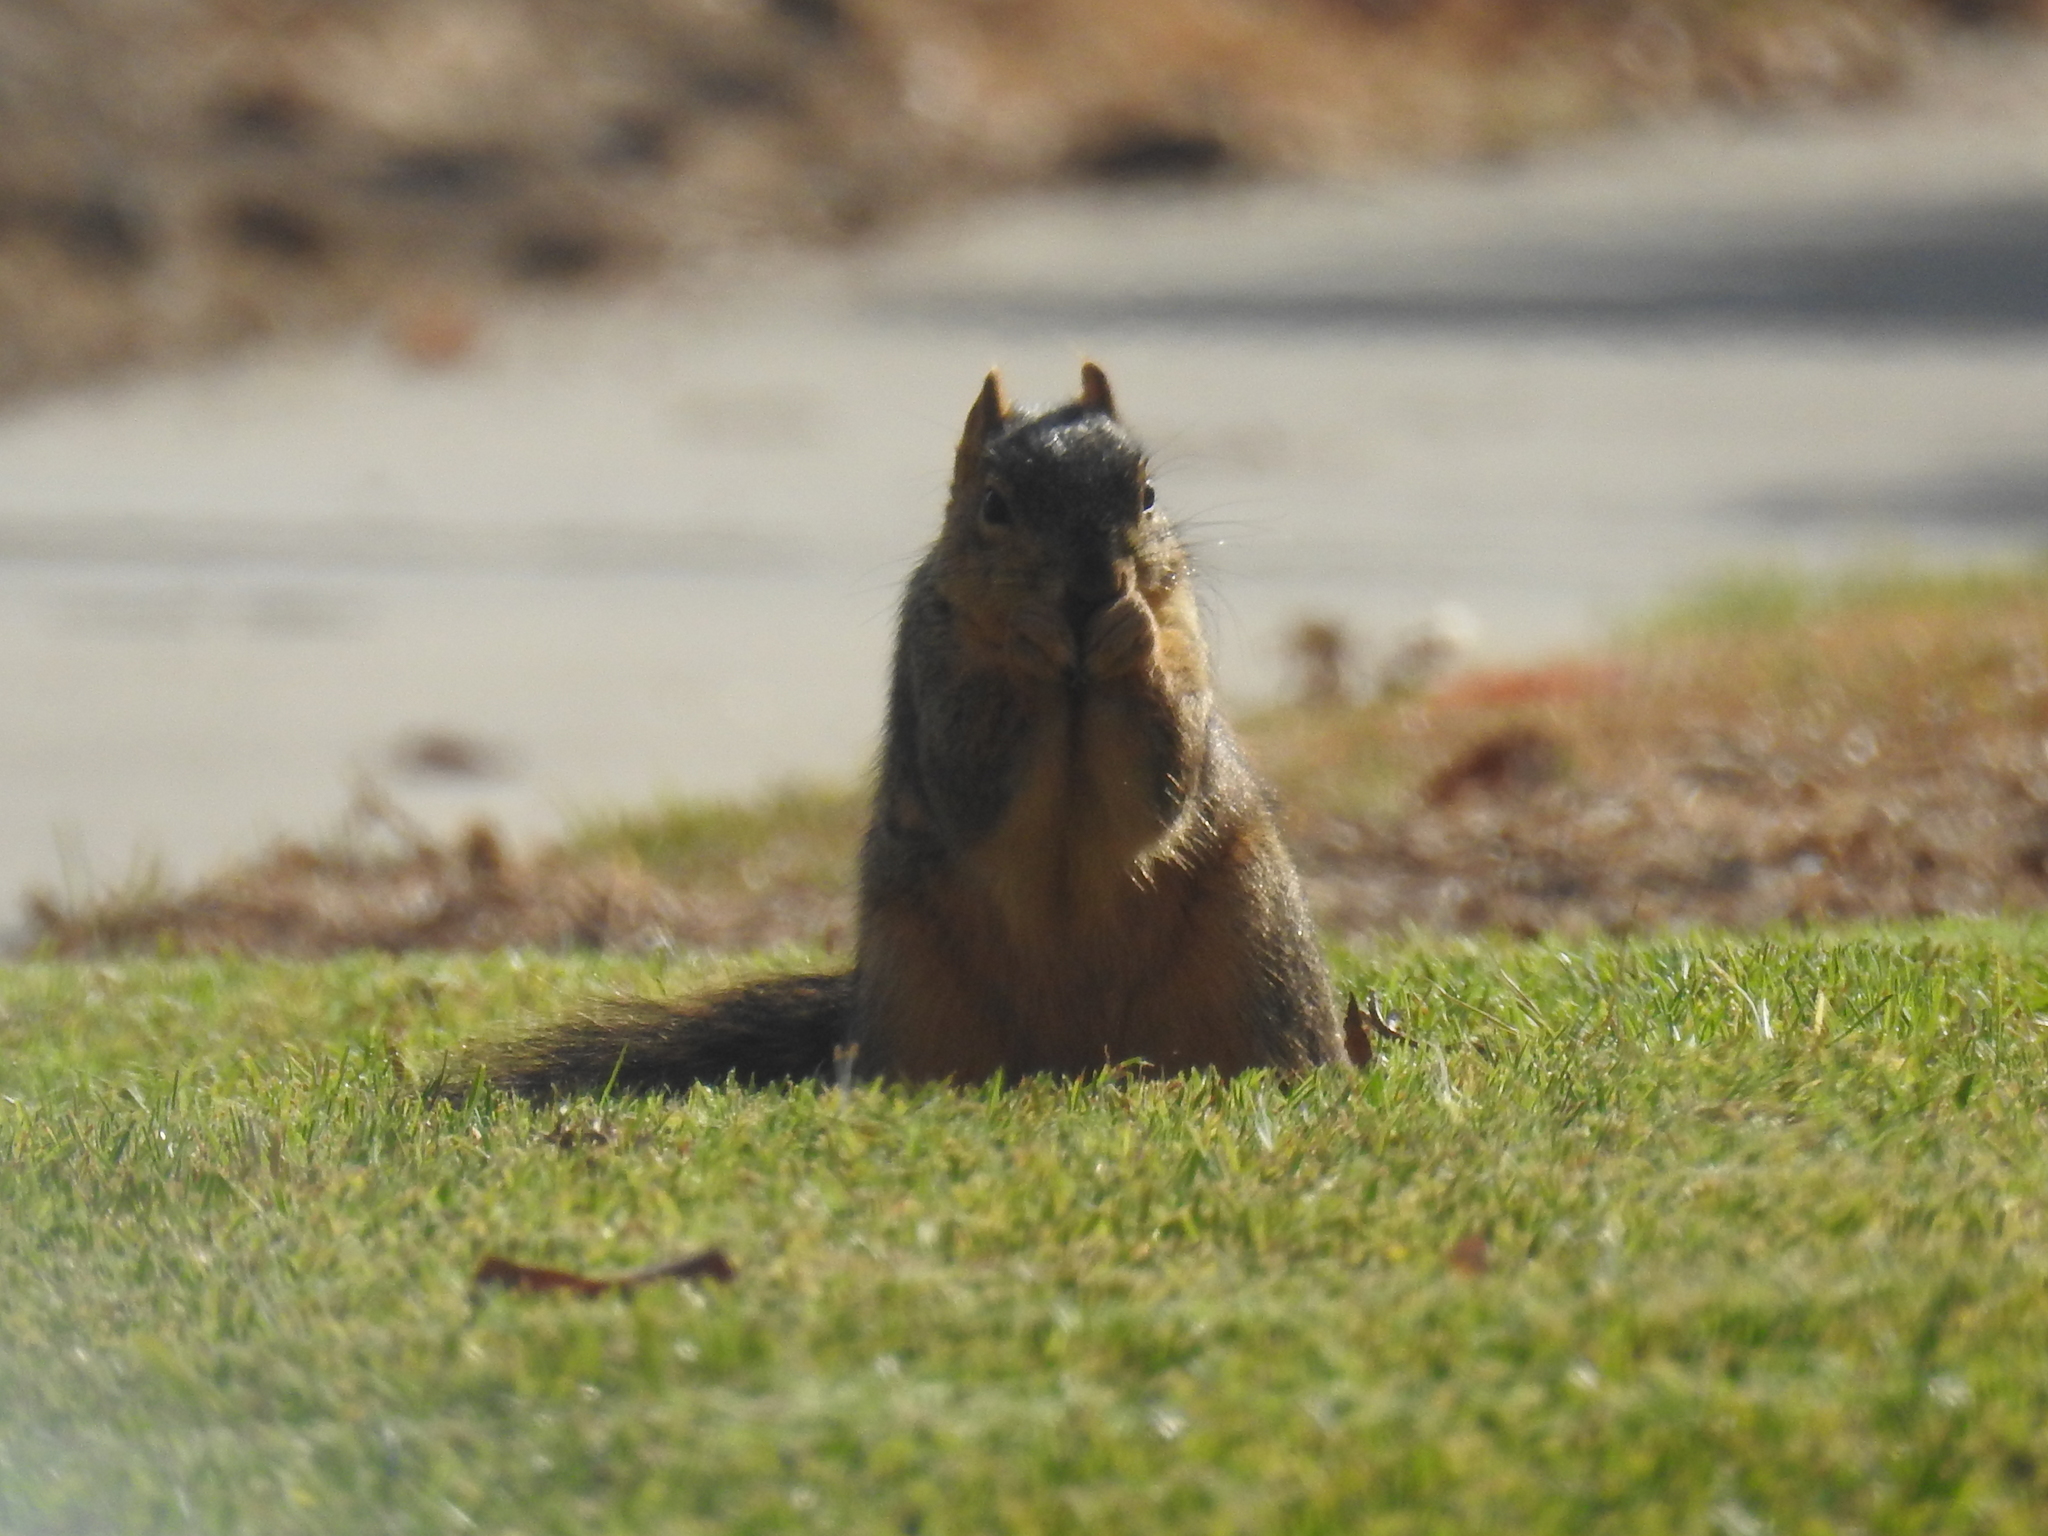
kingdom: Animalia
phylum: Chordata
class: Mammalia
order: Rodentia
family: Sciuridae
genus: Sciurus
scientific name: Sciurus niger
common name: Fox squirrel
